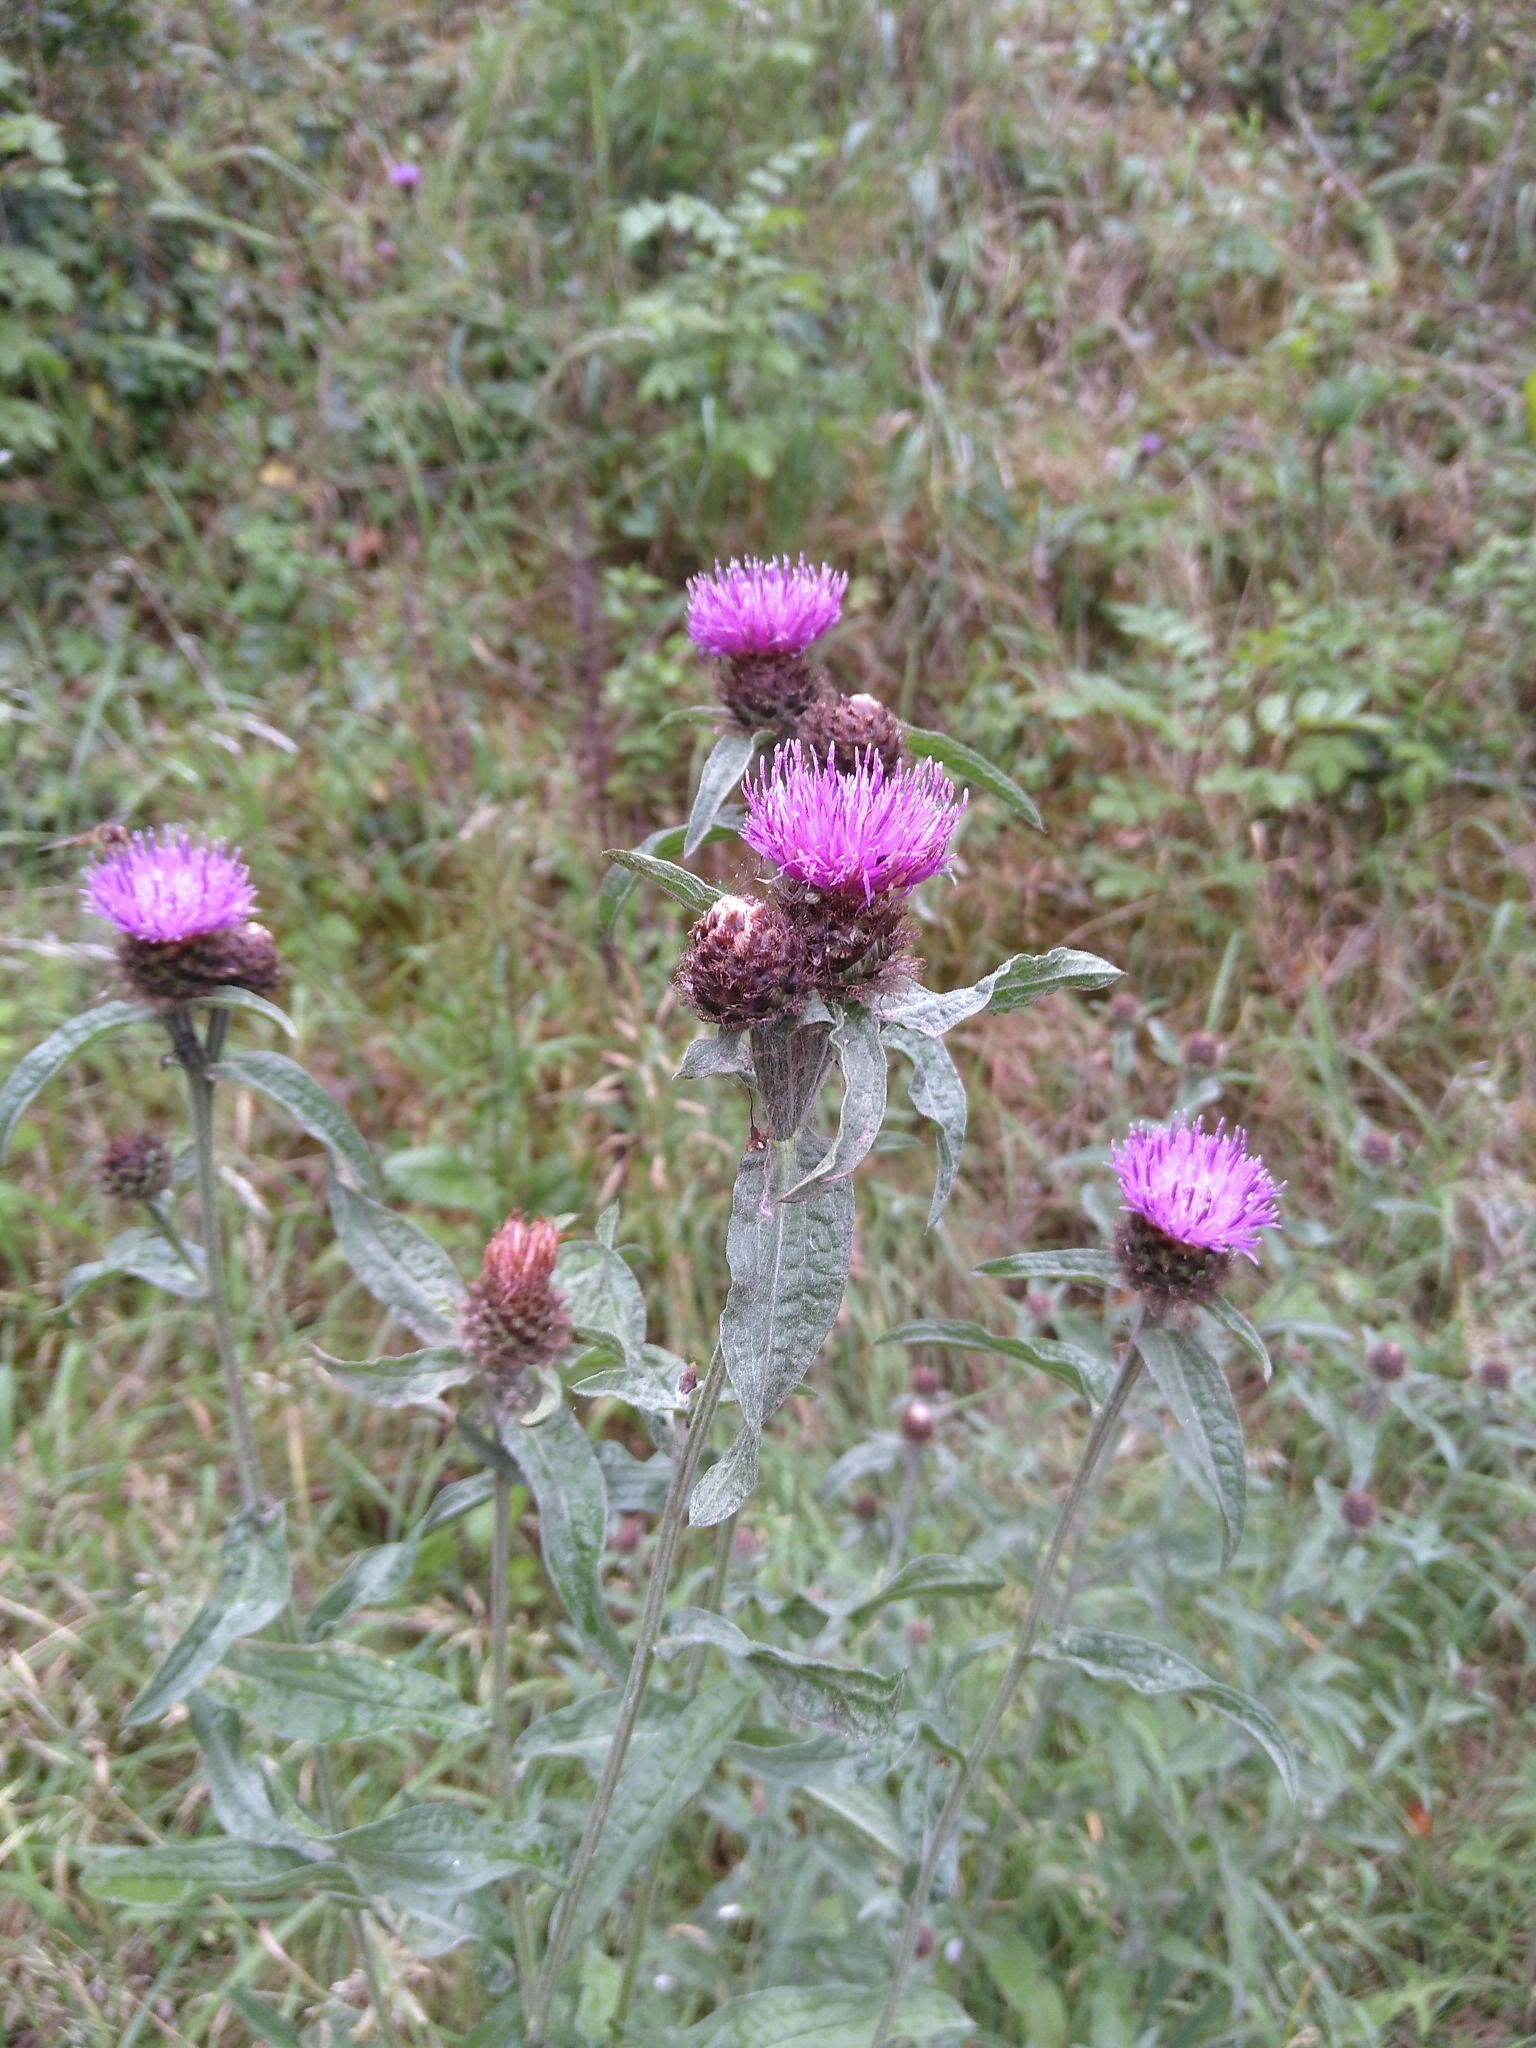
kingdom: Plantae
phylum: Tracheophyta
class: Magnoliopsida
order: Asterales
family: Asteraceae
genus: Centaurea
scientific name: Centaurea nigra
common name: Lesser knapweed
